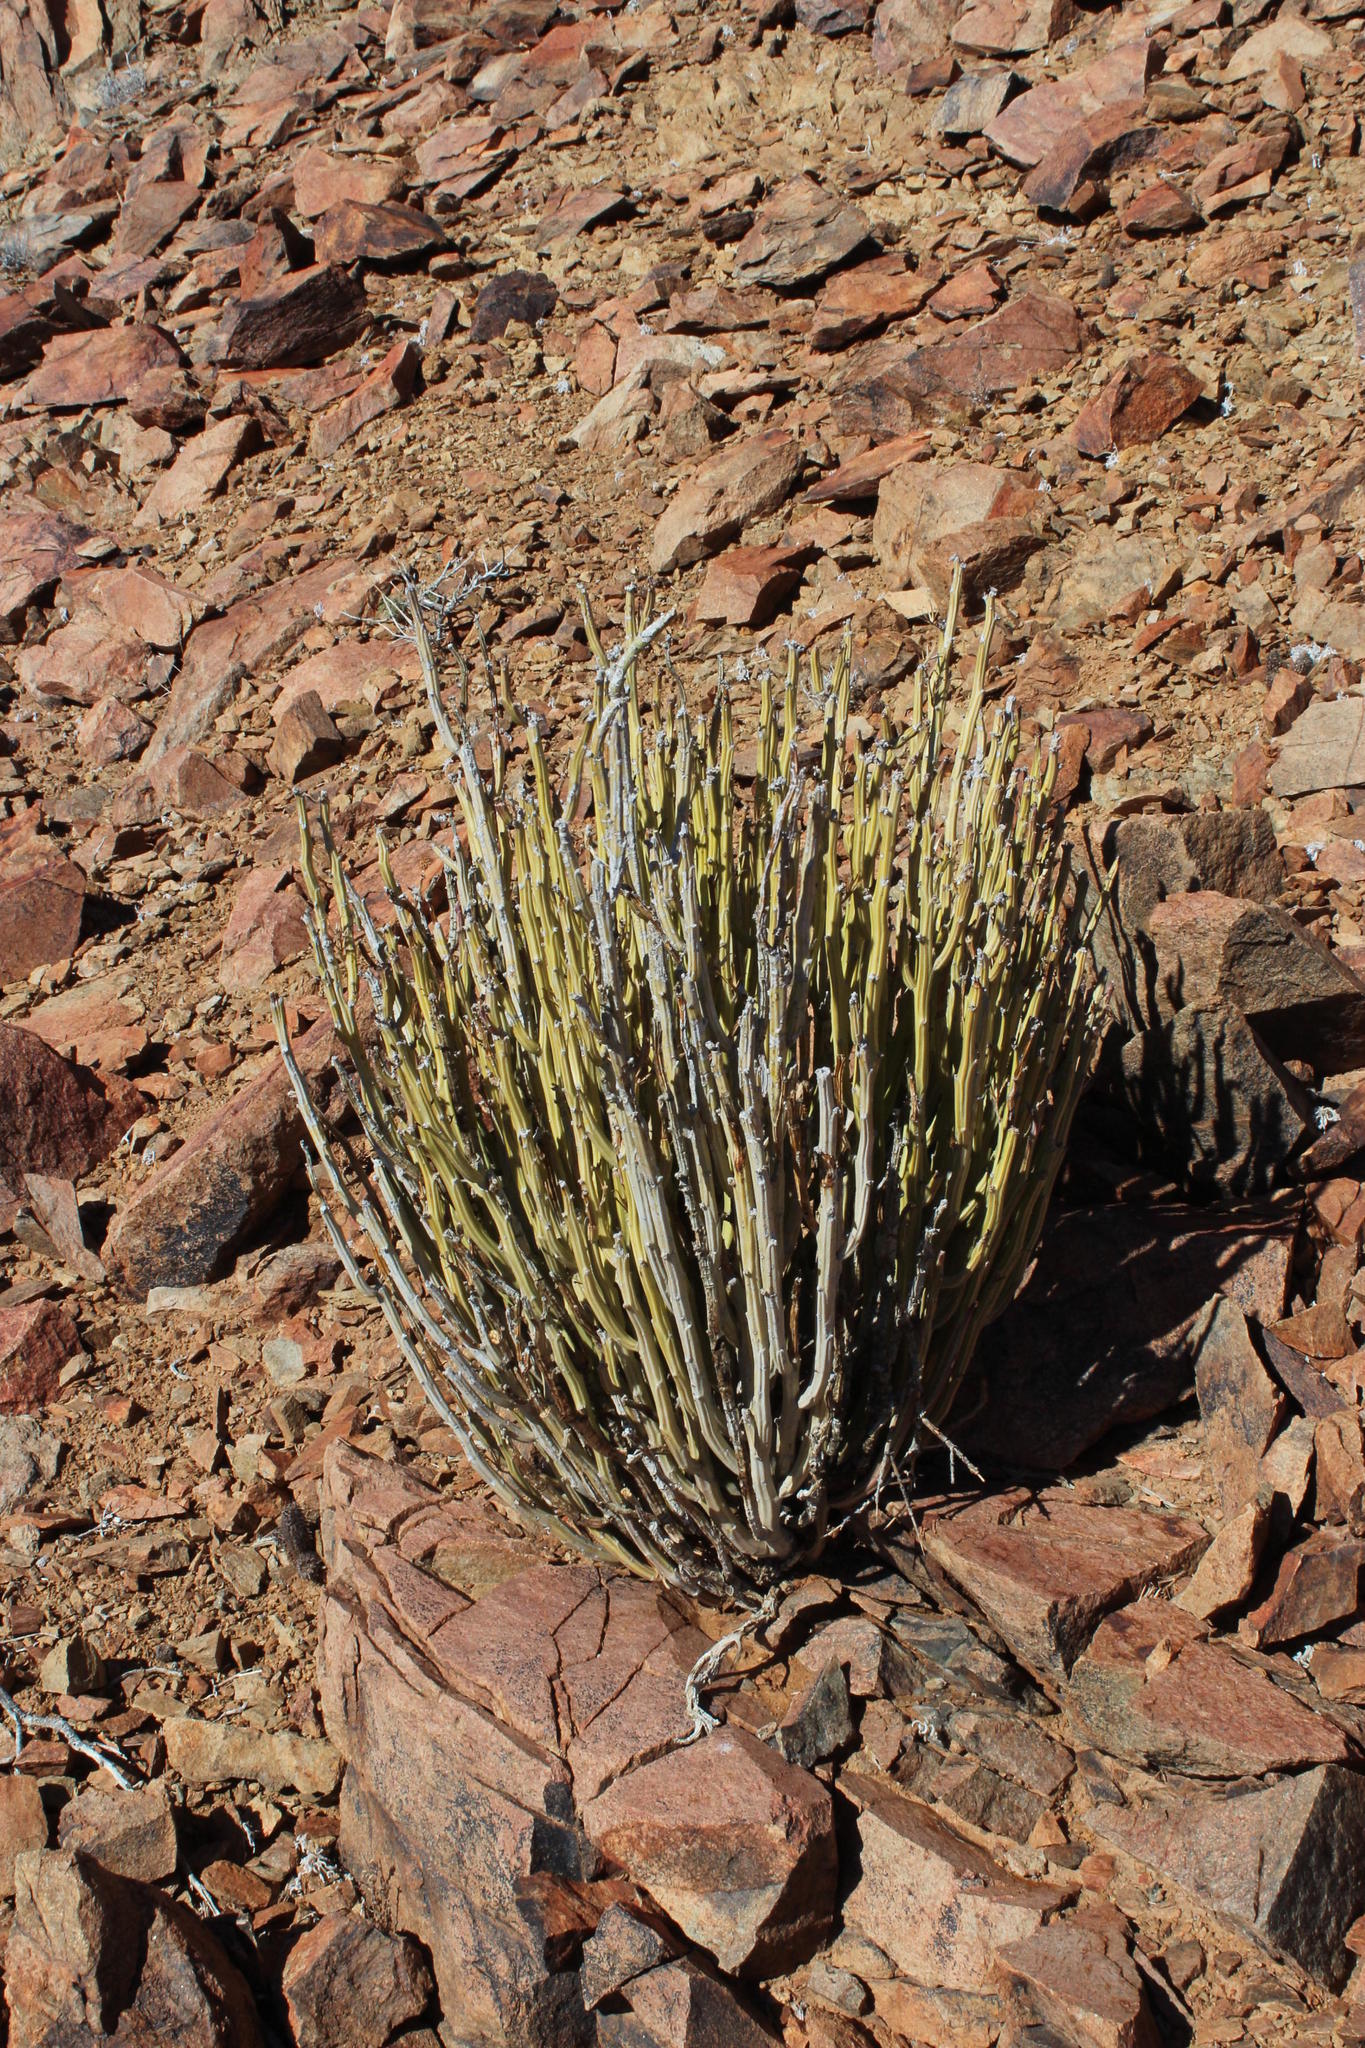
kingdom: Plantae
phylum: Tracheophyta
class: Magnoliopsida
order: Asterales
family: Asteraceae
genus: Curio
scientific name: Curio avasimontanus
